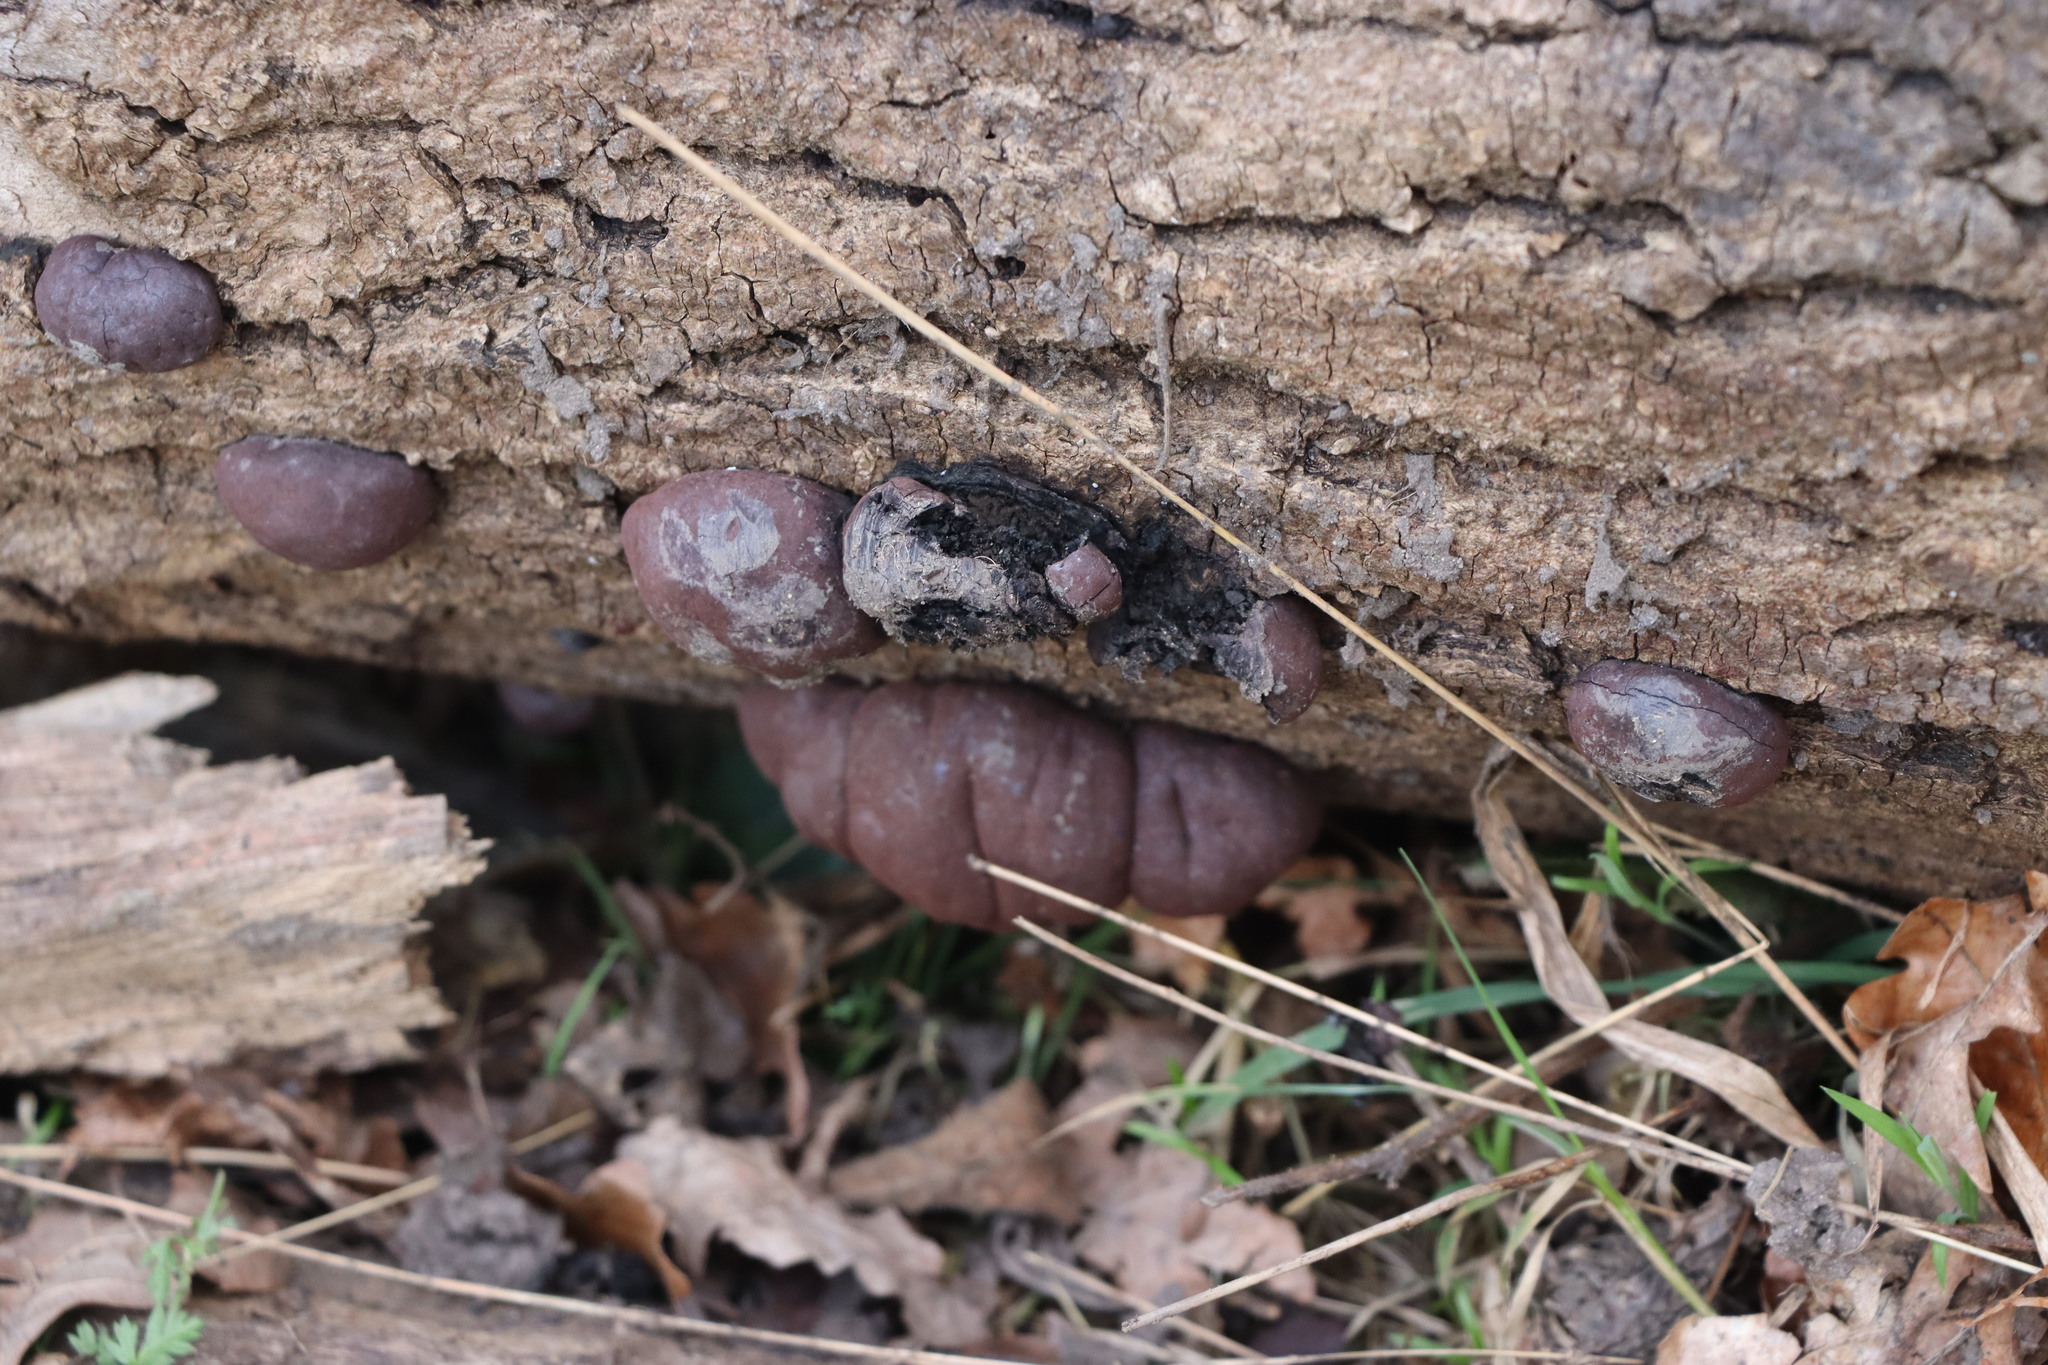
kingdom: Fungi
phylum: Ascomycota
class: Sordariomycetes
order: Xylariales
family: Hypoxylaceae
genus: Daldinia
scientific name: Daldinia concentrica
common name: Cramp balls
